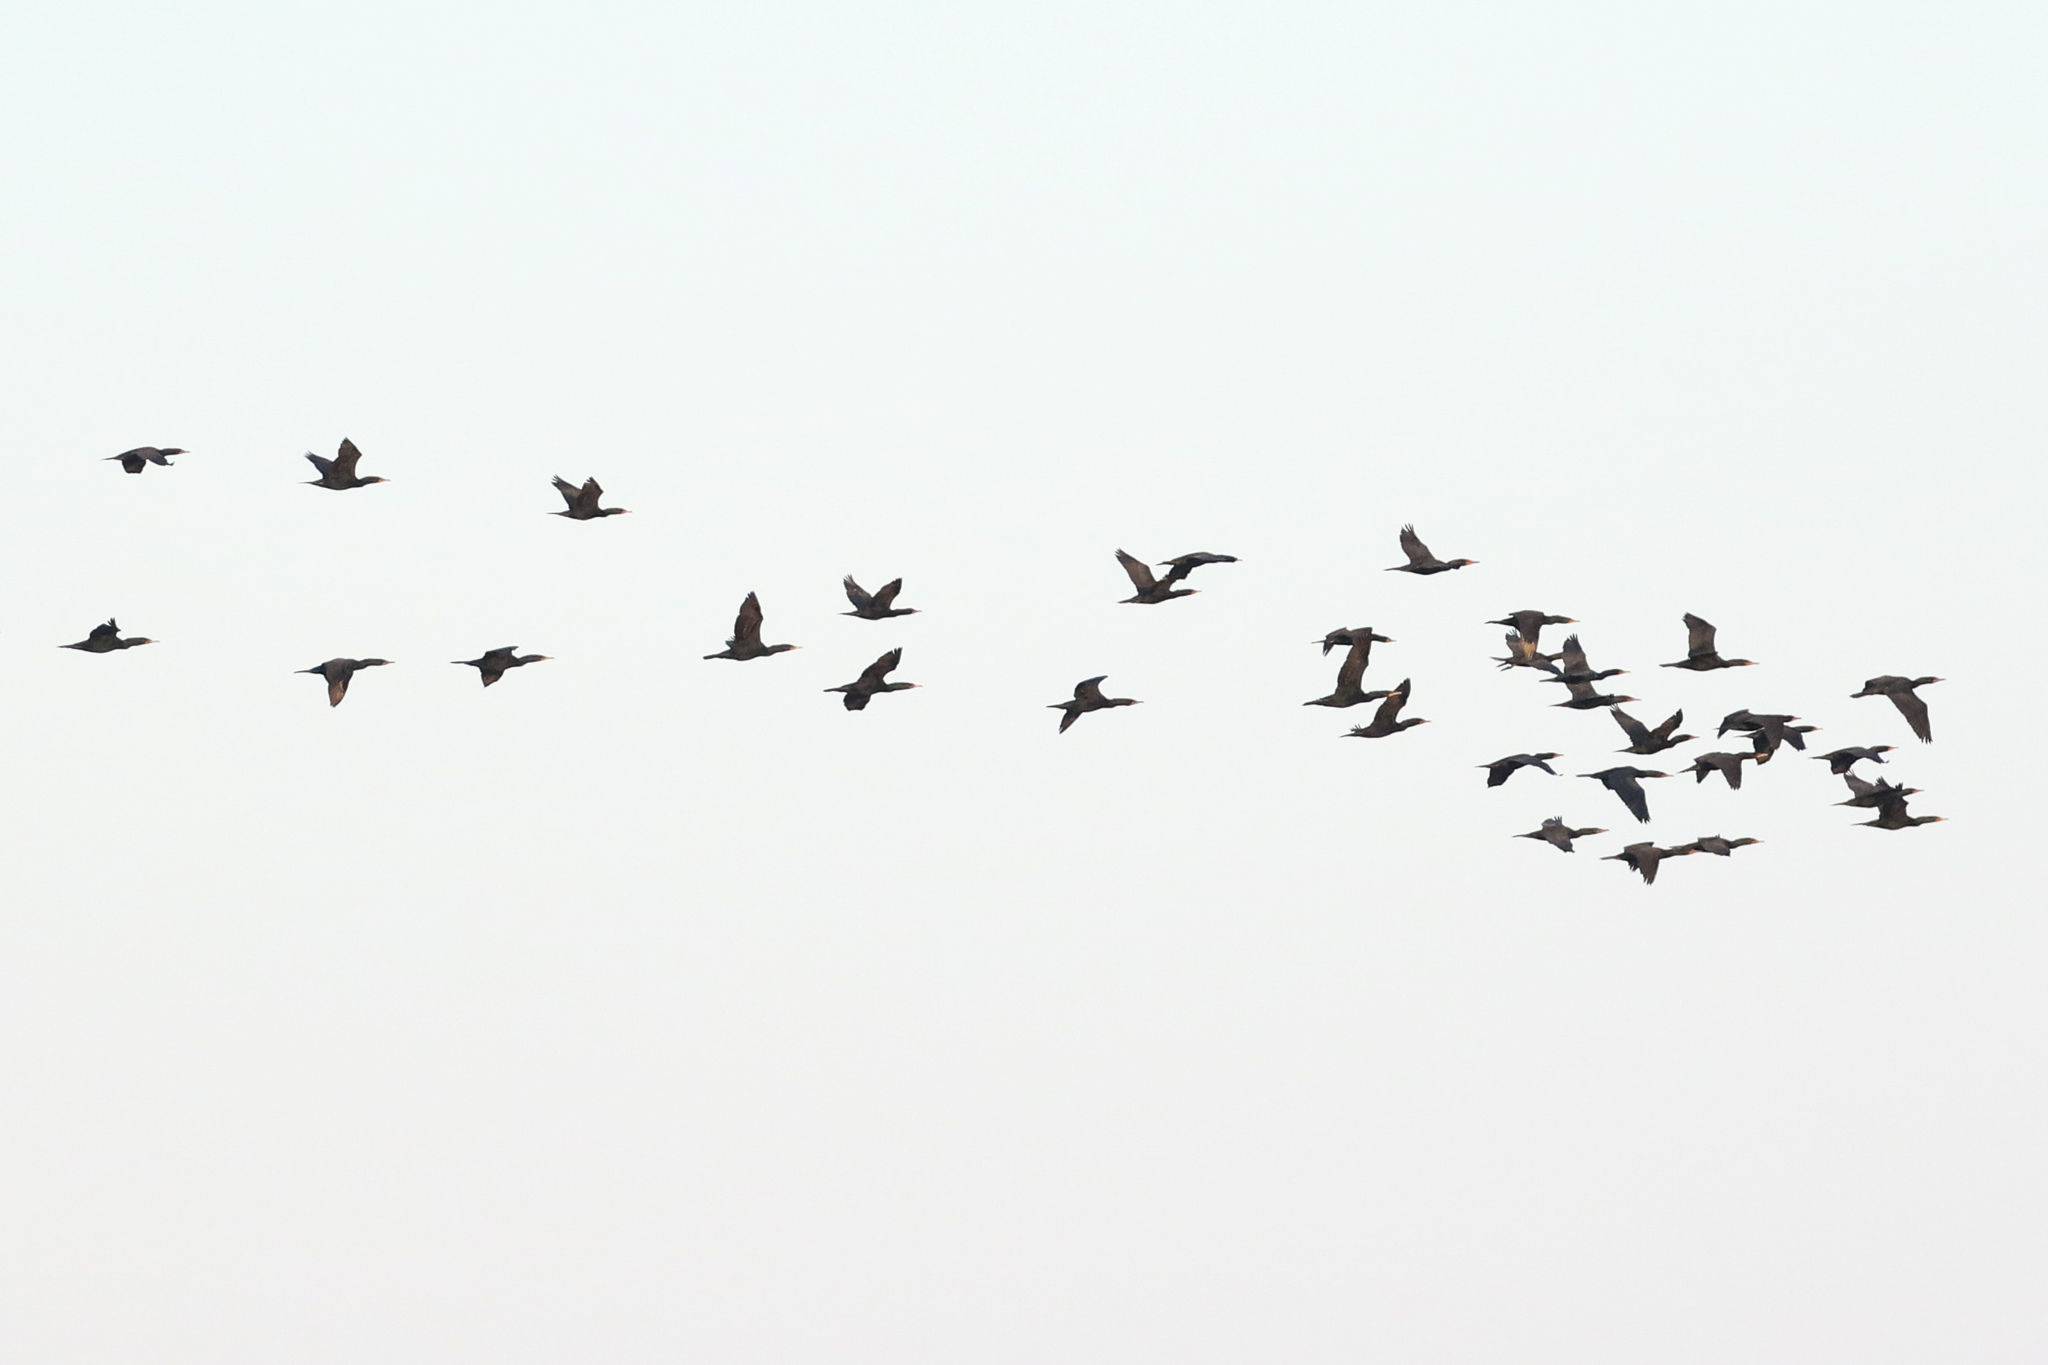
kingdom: Animalia
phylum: Chordata
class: Aves
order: Suliformes
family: Phalacrocoracidae
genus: Phalacrocorax
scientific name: Phalacrocorax auritus
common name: Double-crested cormorant
